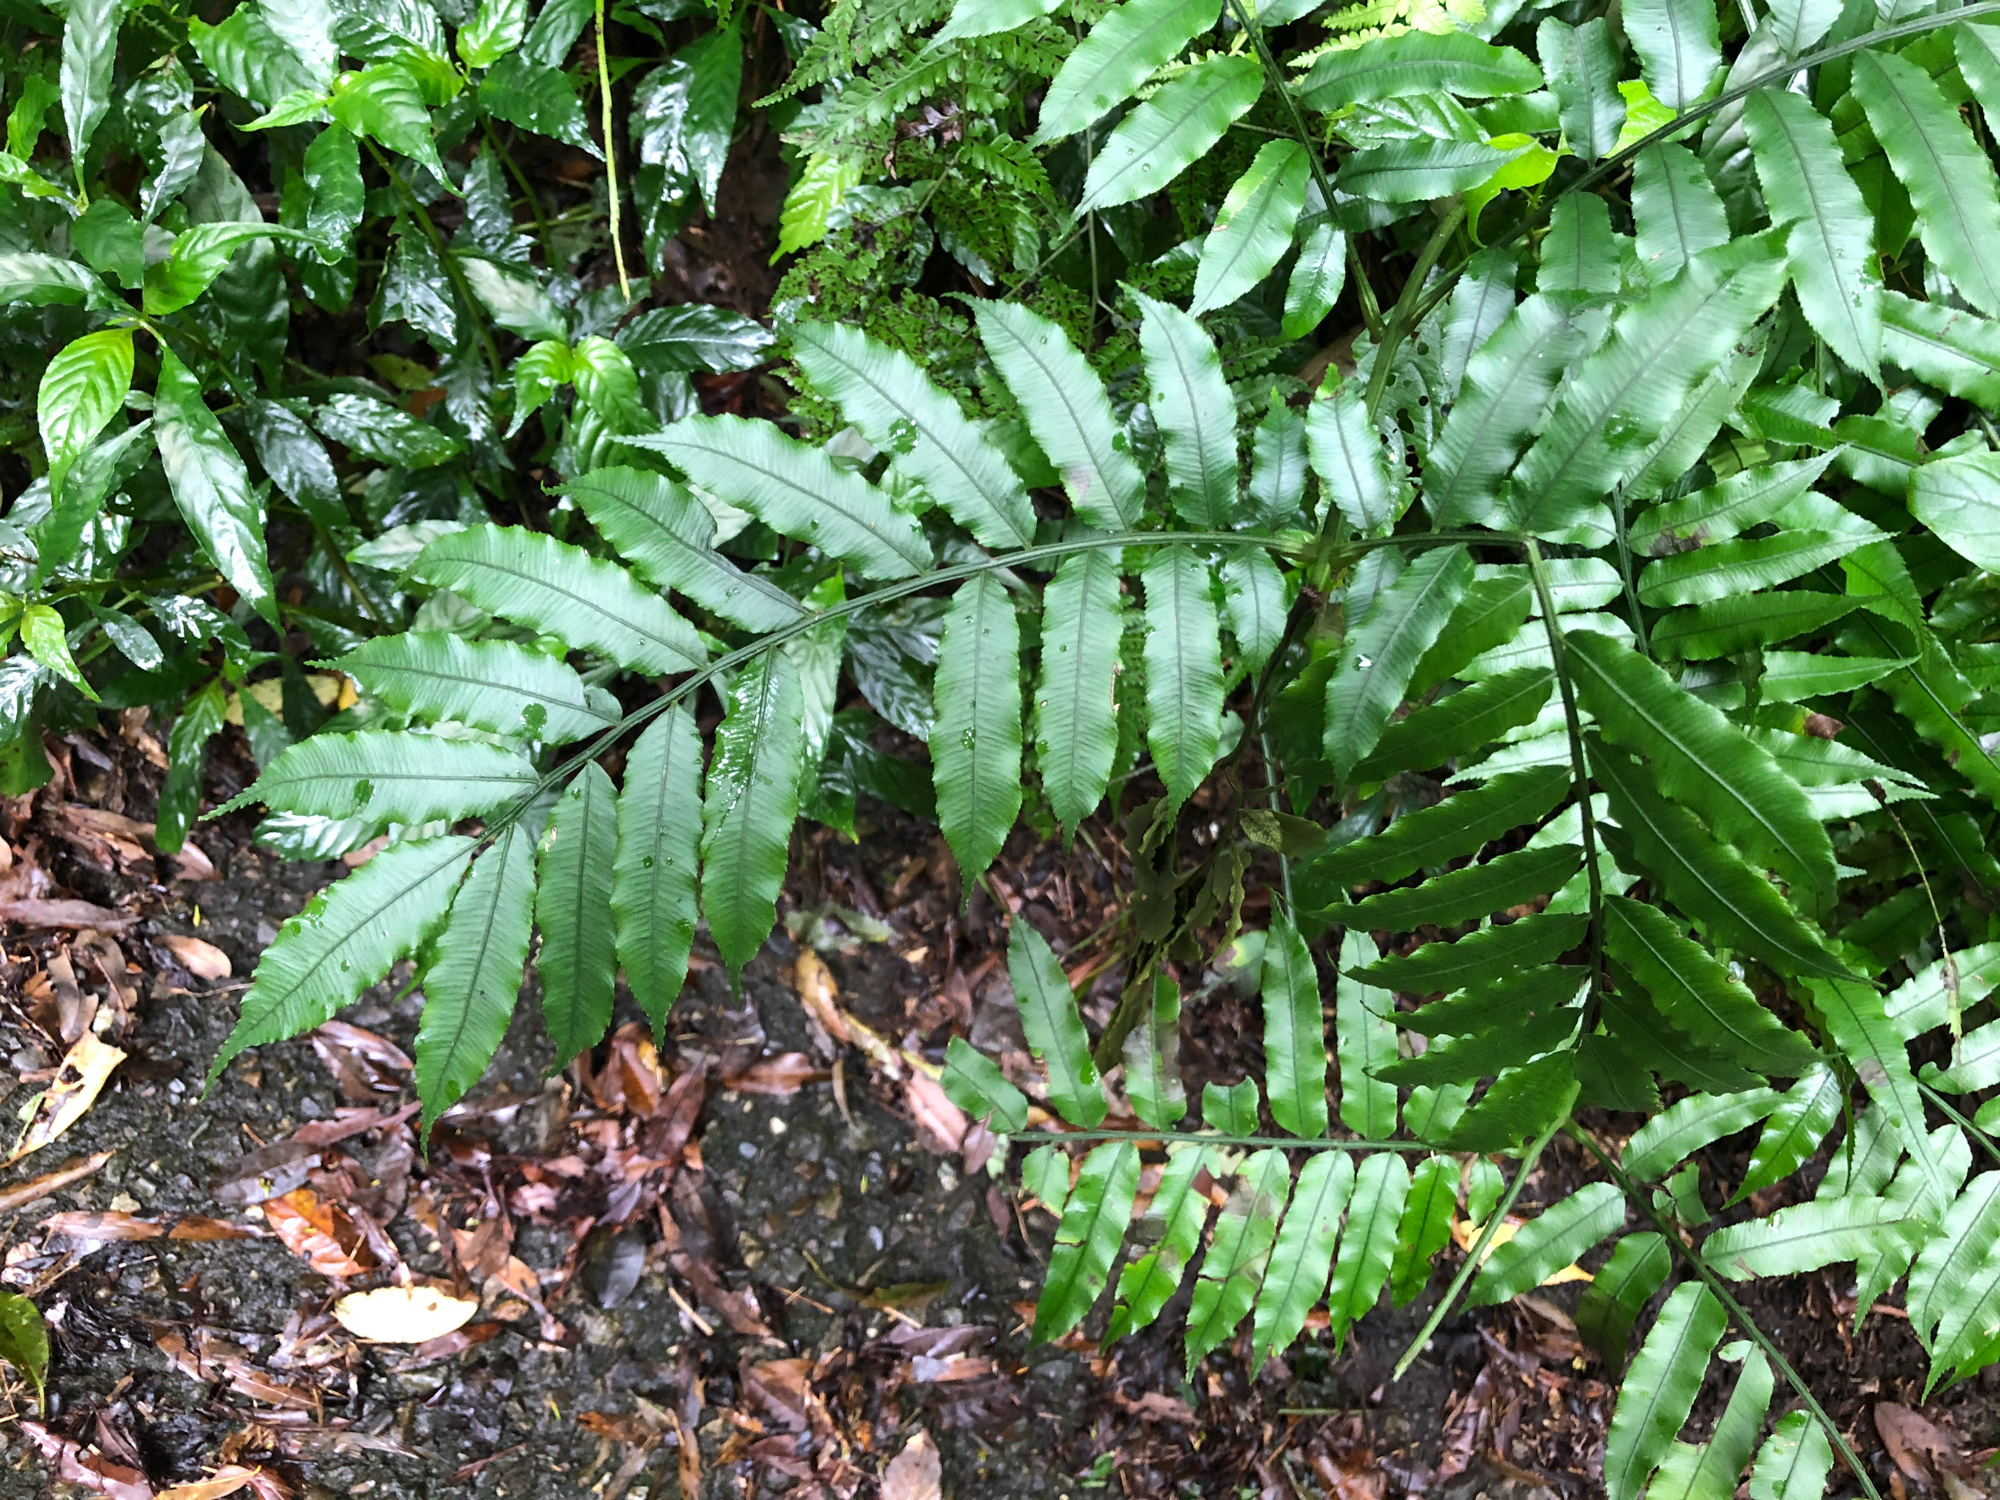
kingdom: Plantae
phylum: Tracheophyta
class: Polypodiopsida
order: Marattiales
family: Marattiaceae
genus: Angiopteris
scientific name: Angiopteris lygodiifolia
